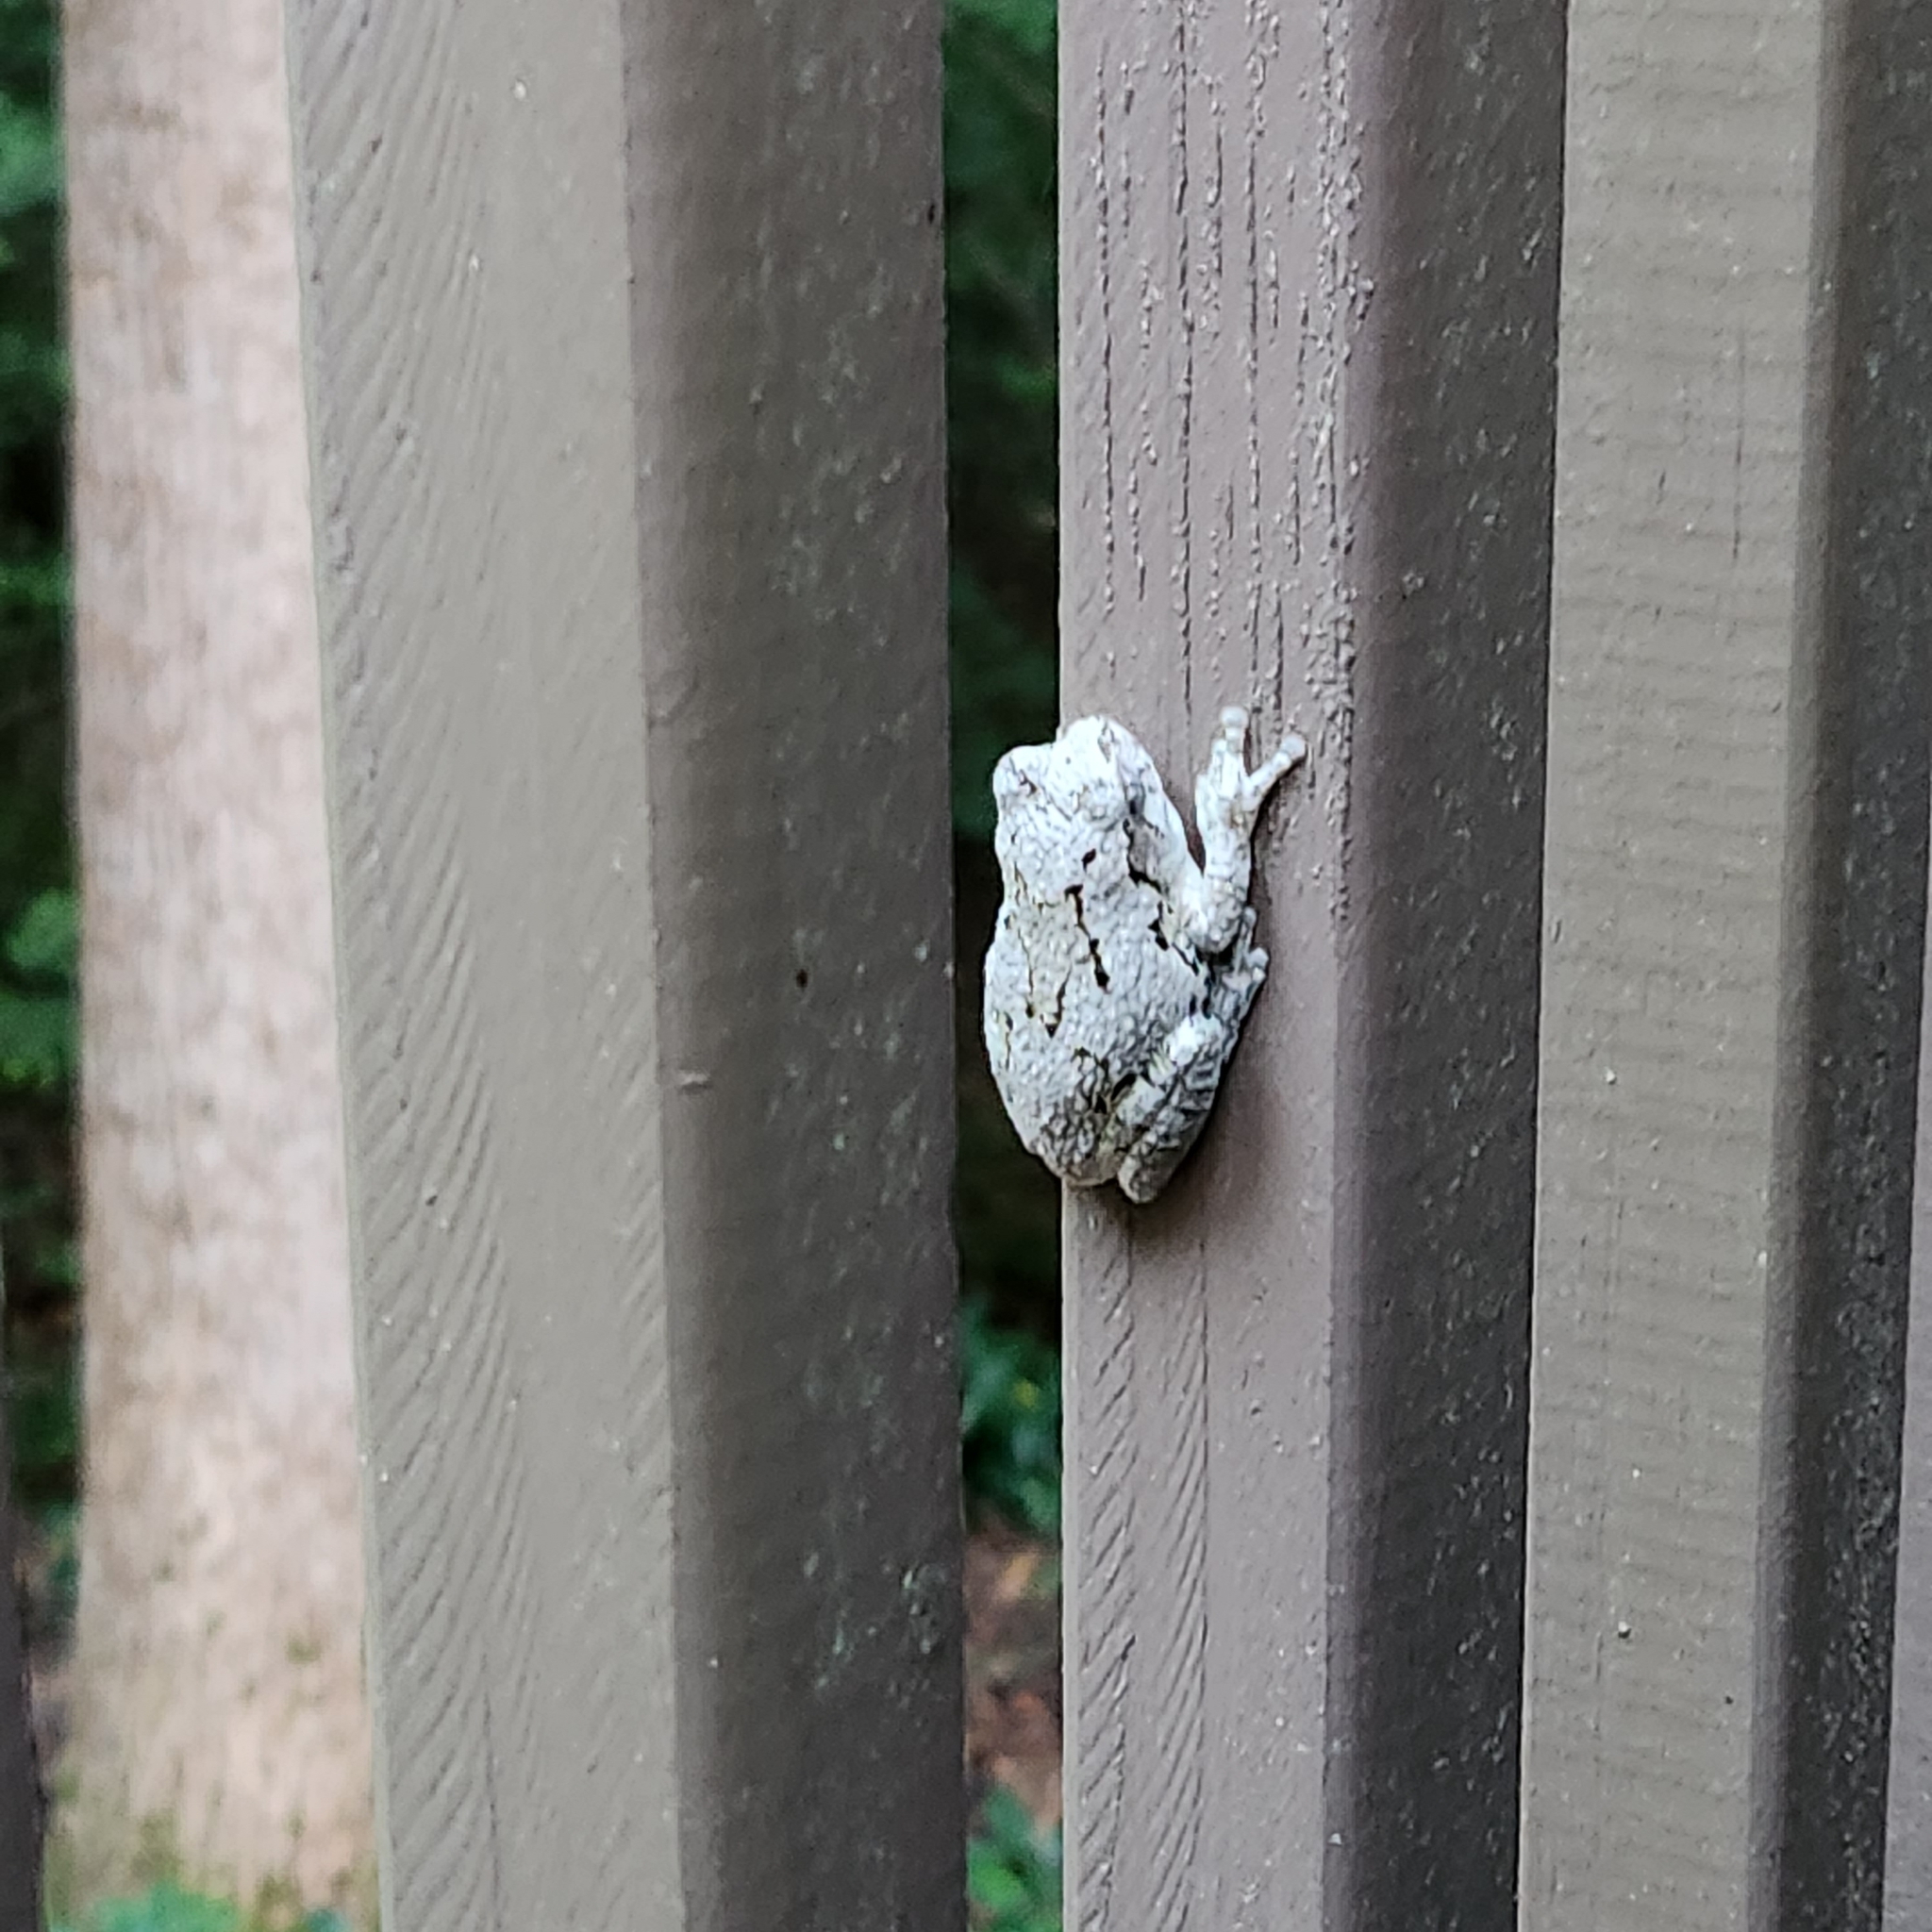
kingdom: Animalia
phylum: Chordata
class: Amphibia
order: Anura
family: Hylidae
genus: Dryophytes
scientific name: Dryophytes chrysoscelis
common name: Cope's gray treefrog
